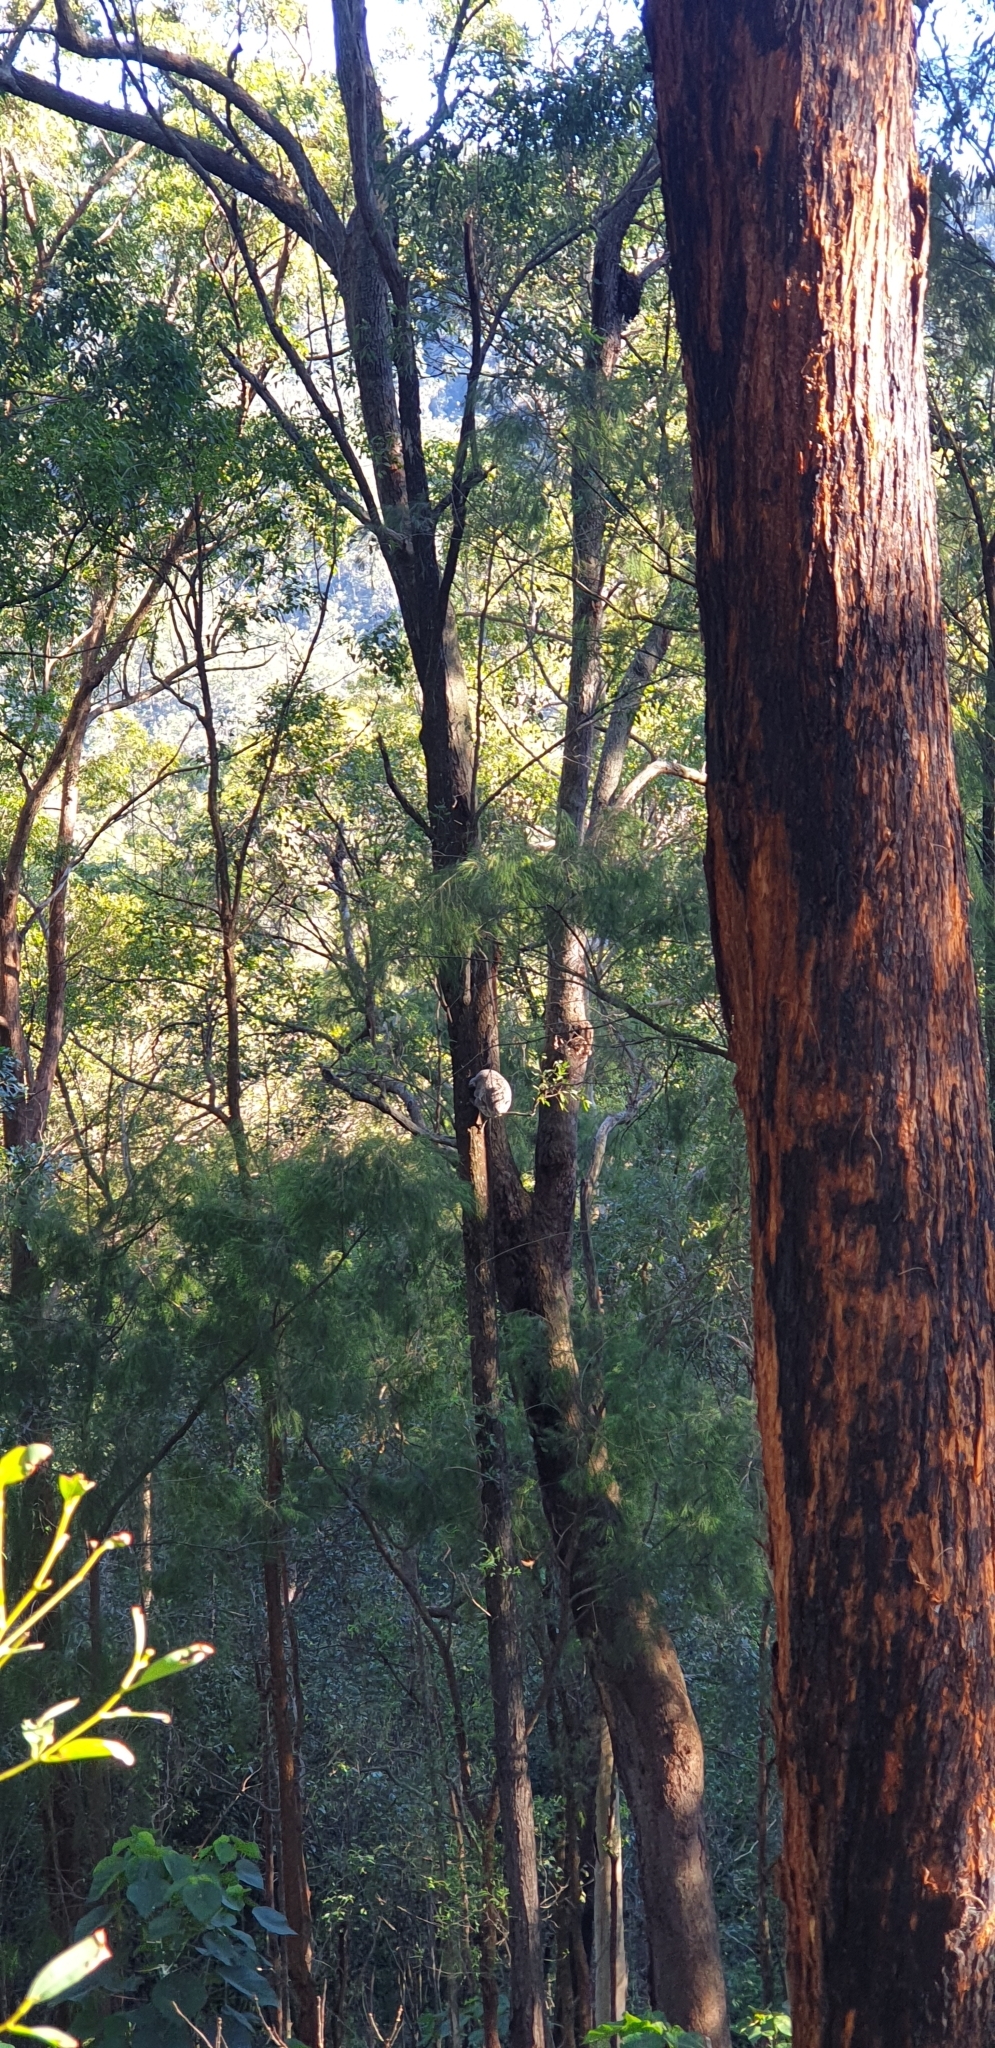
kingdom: Animalia
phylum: Chordata
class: Mammalia
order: Diprotodontia
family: Phascolarctidae
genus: Phascolarctos
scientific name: Phascolarctos cinereus
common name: Koala
